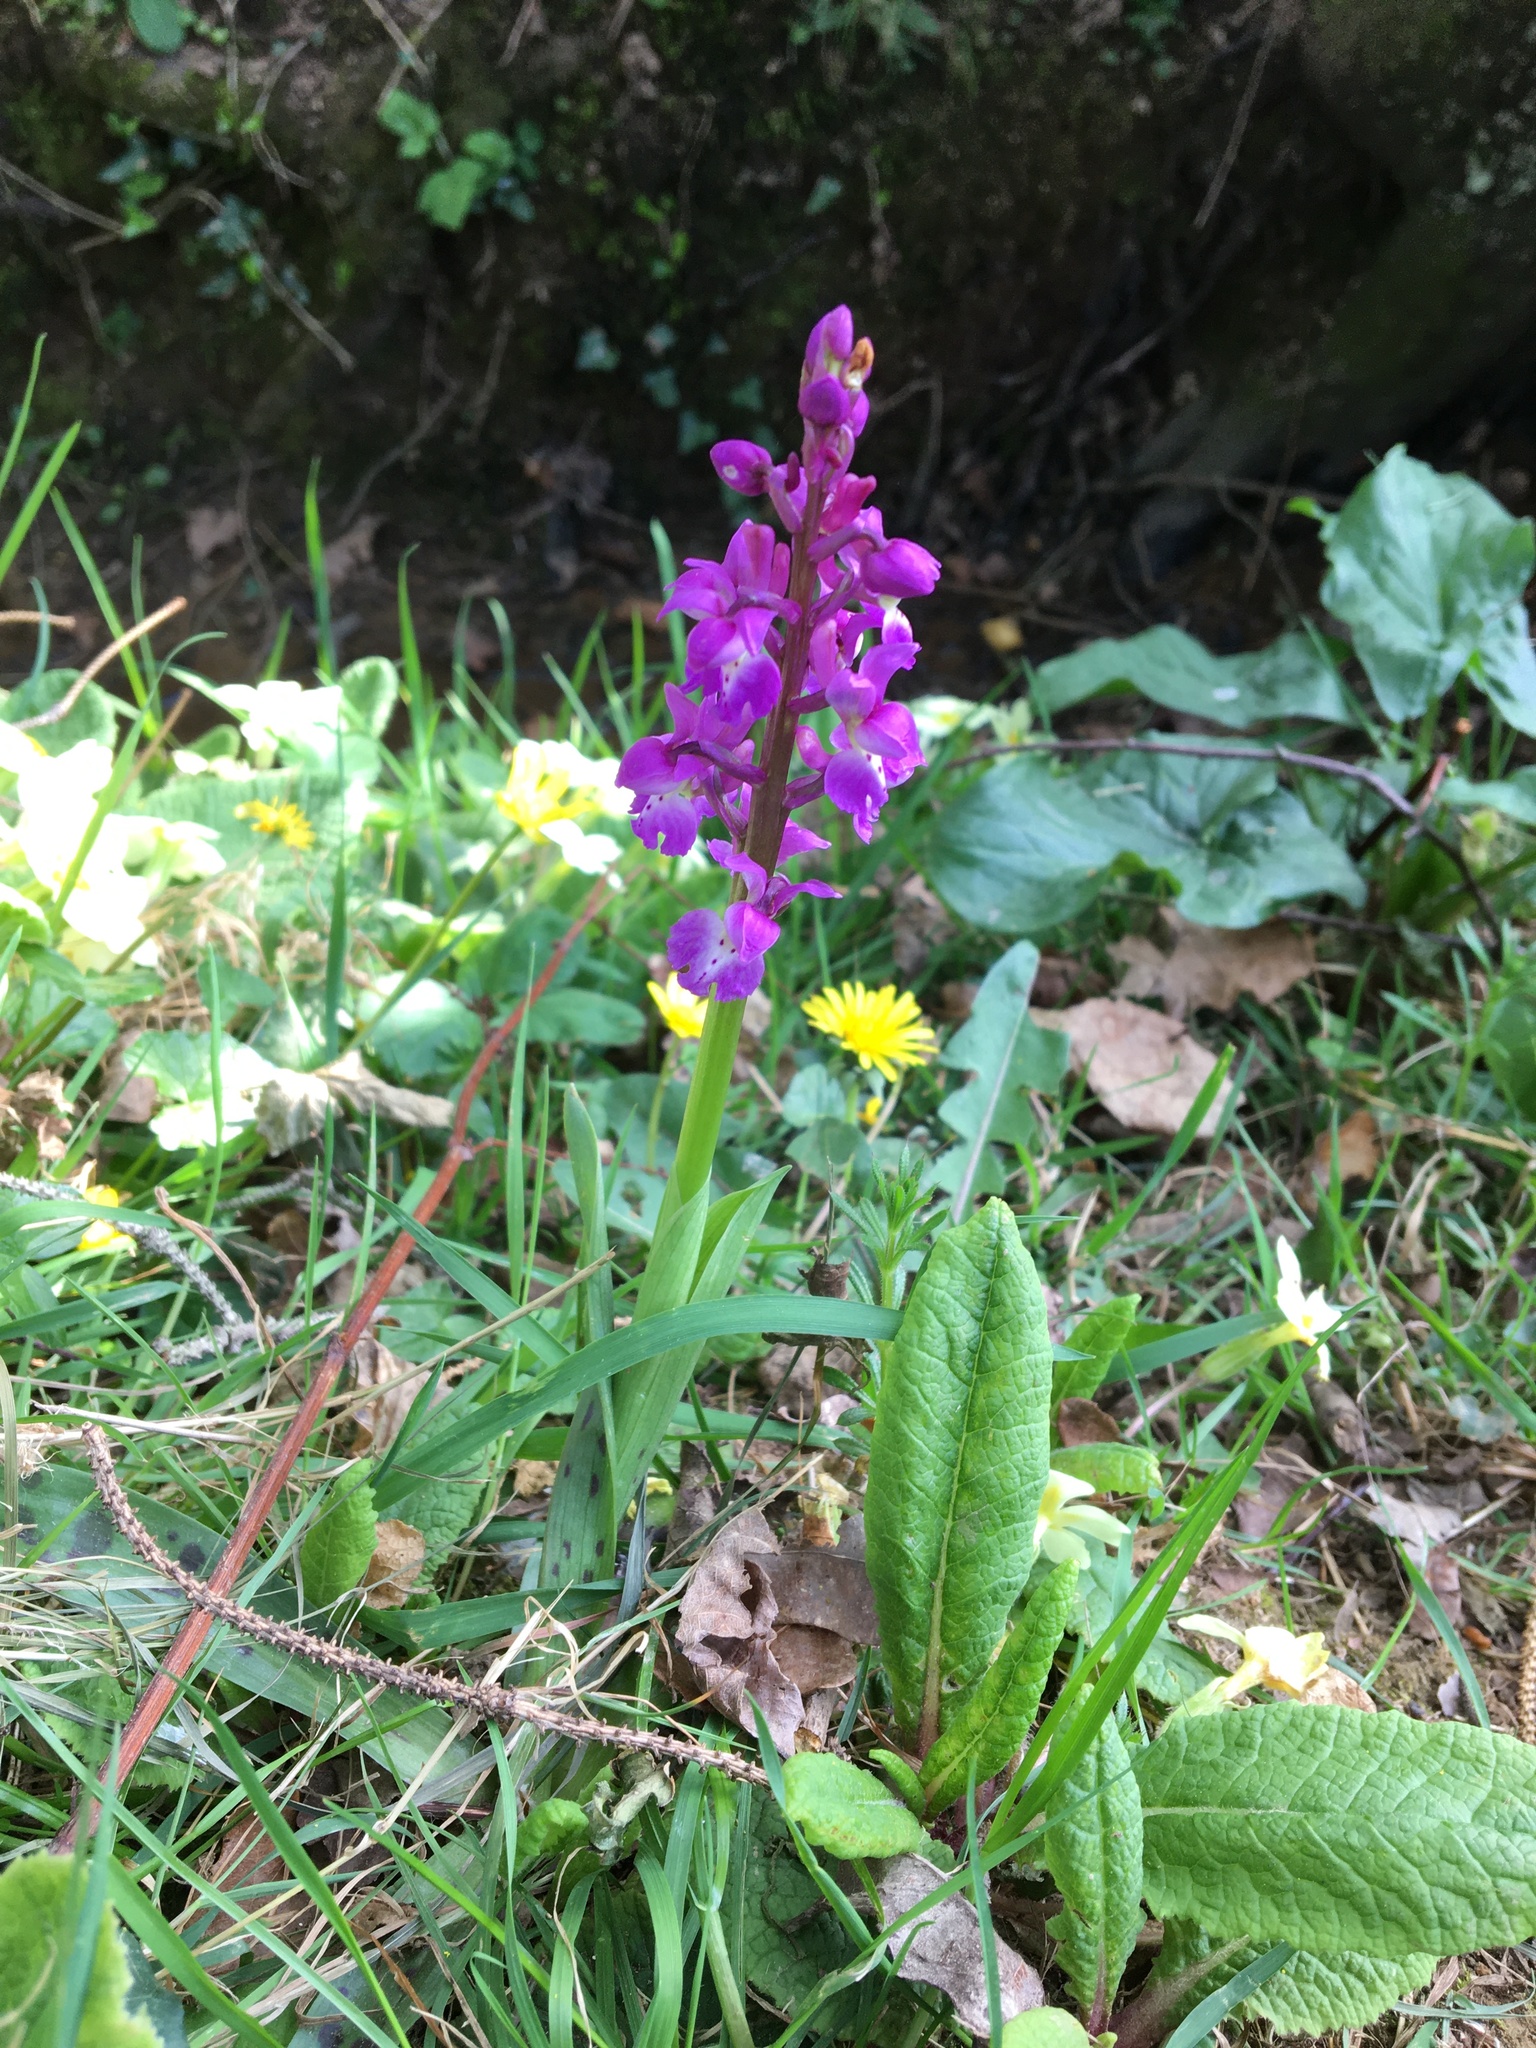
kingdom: Plantae
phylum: Tracheophyta
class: Liliopsida
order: Asparagales
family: Orchidaceae
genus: Orchis
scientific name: Orchis mascula
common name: Early-purple orchid
